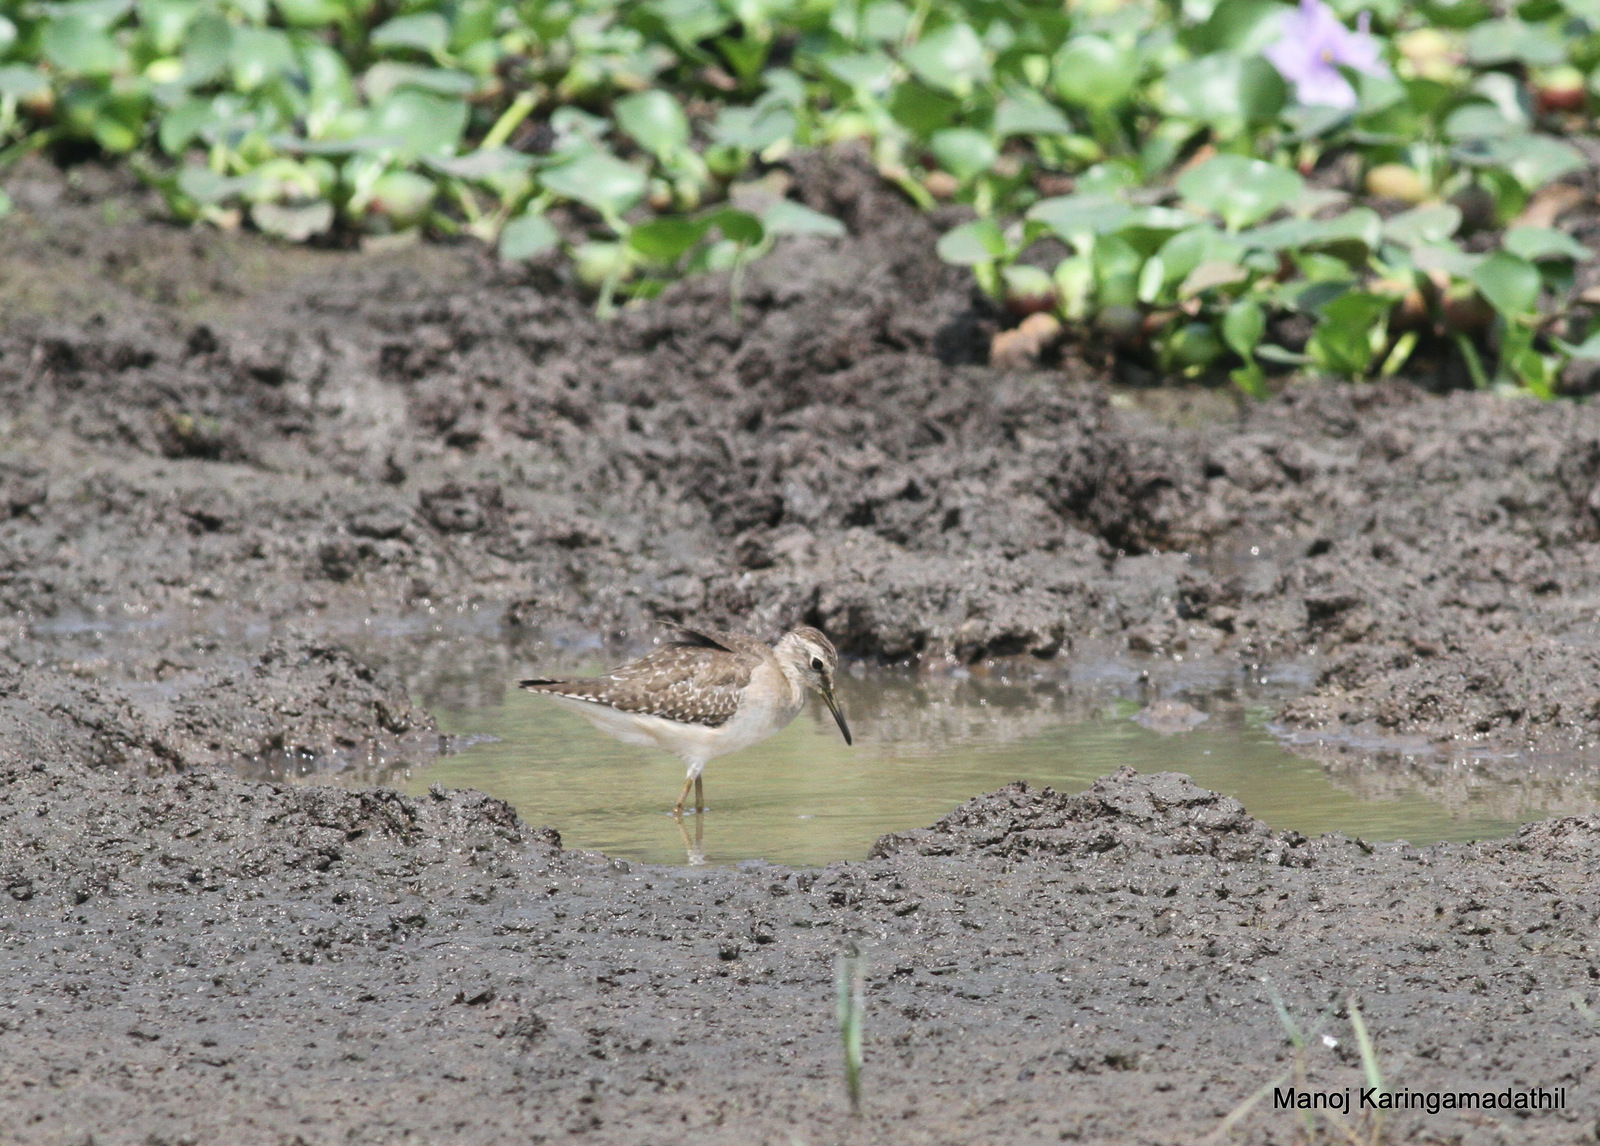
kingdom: Animalia
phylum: Chordata
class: Aves
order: Charadriiformes
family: Scolopacidae
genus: Tringa
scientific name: Tringa glareola
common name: Wood sandpiper
